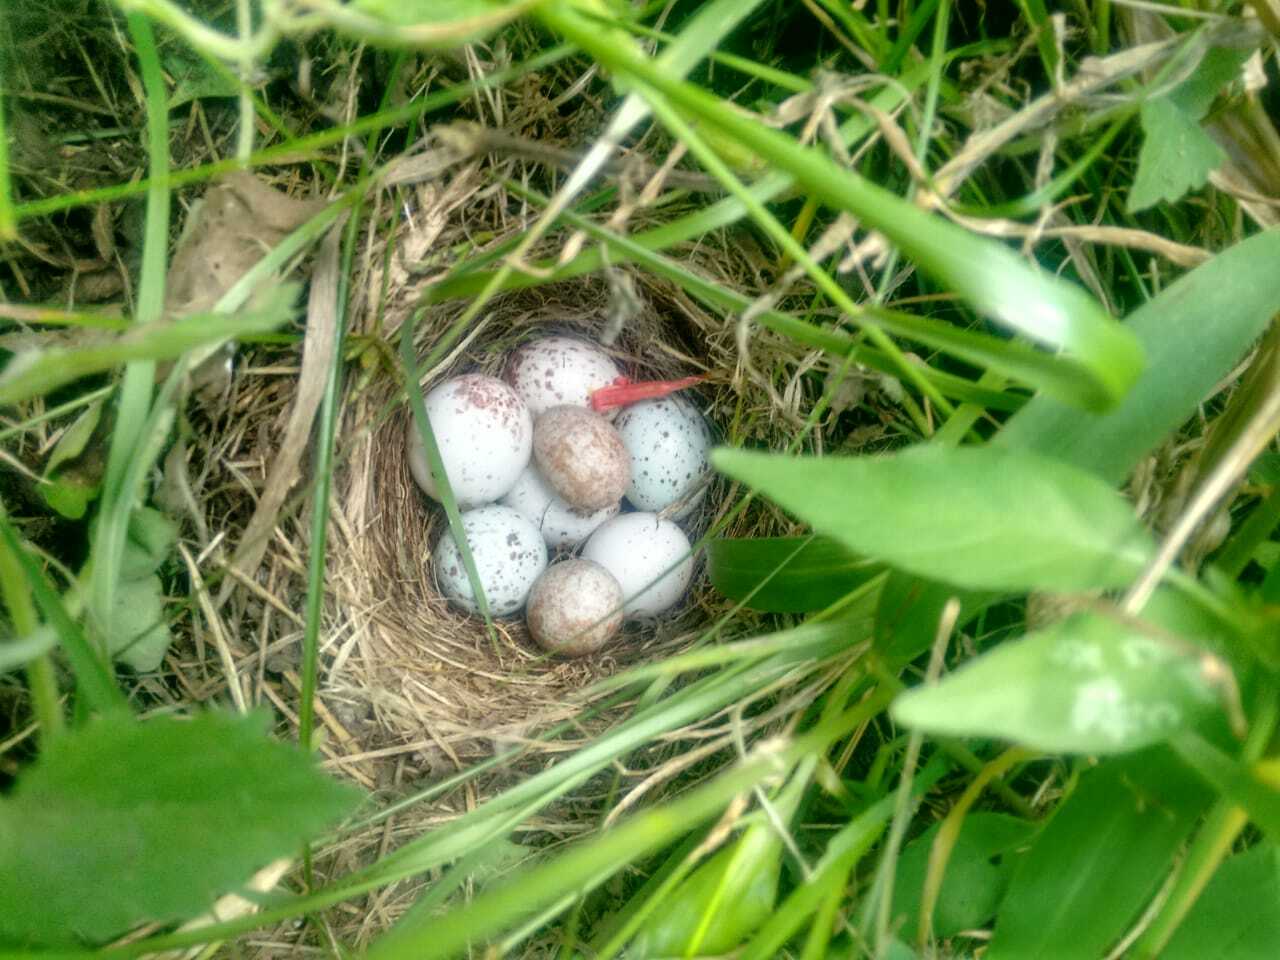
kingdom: Animalia
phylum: Chordata
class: Aves
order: Passeriformes
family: Passerellidae
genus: Zonotrichia
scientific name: Zonotrichia capensis
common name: Rufous-collared sparrow
